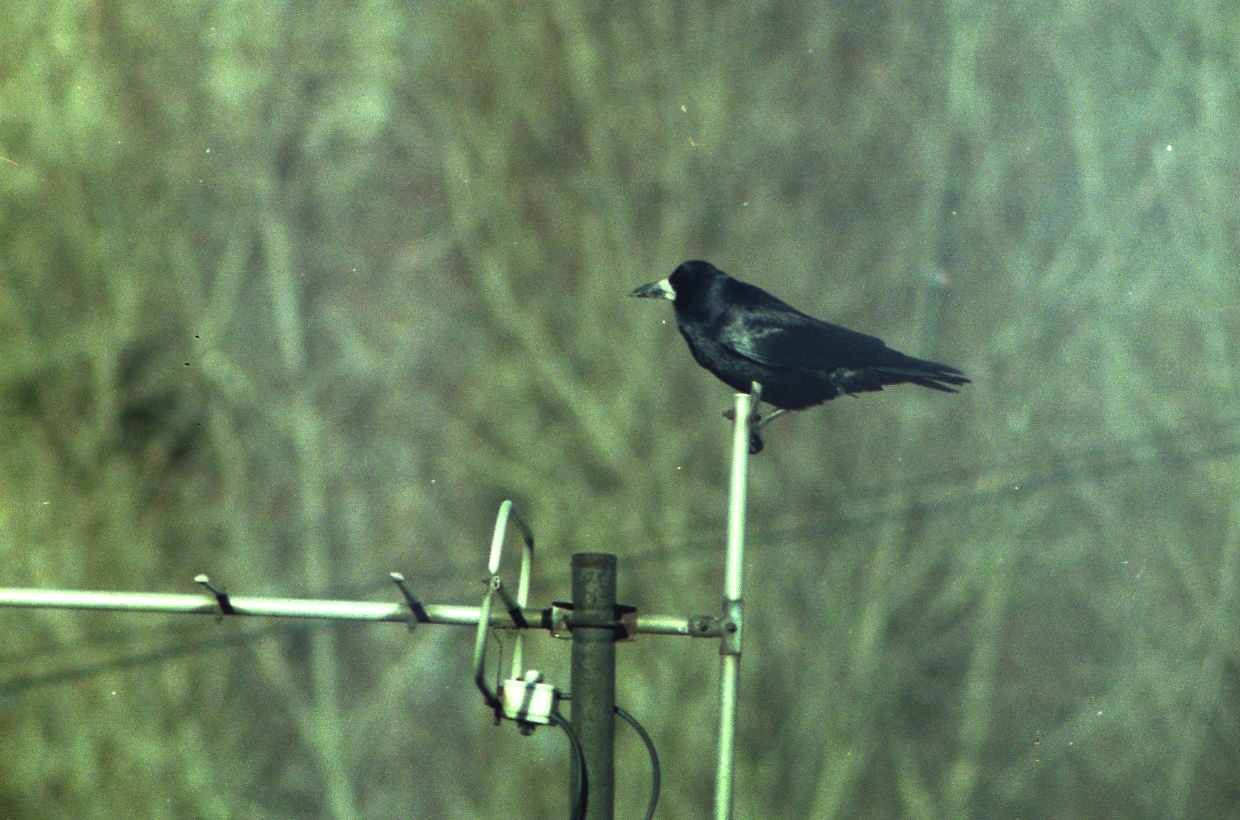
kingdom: Animalia
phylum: Chordata
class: Aves
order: Passeriformes
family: Corvidae
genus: Corvus
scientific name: Corvus frugilegus
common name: Rook
